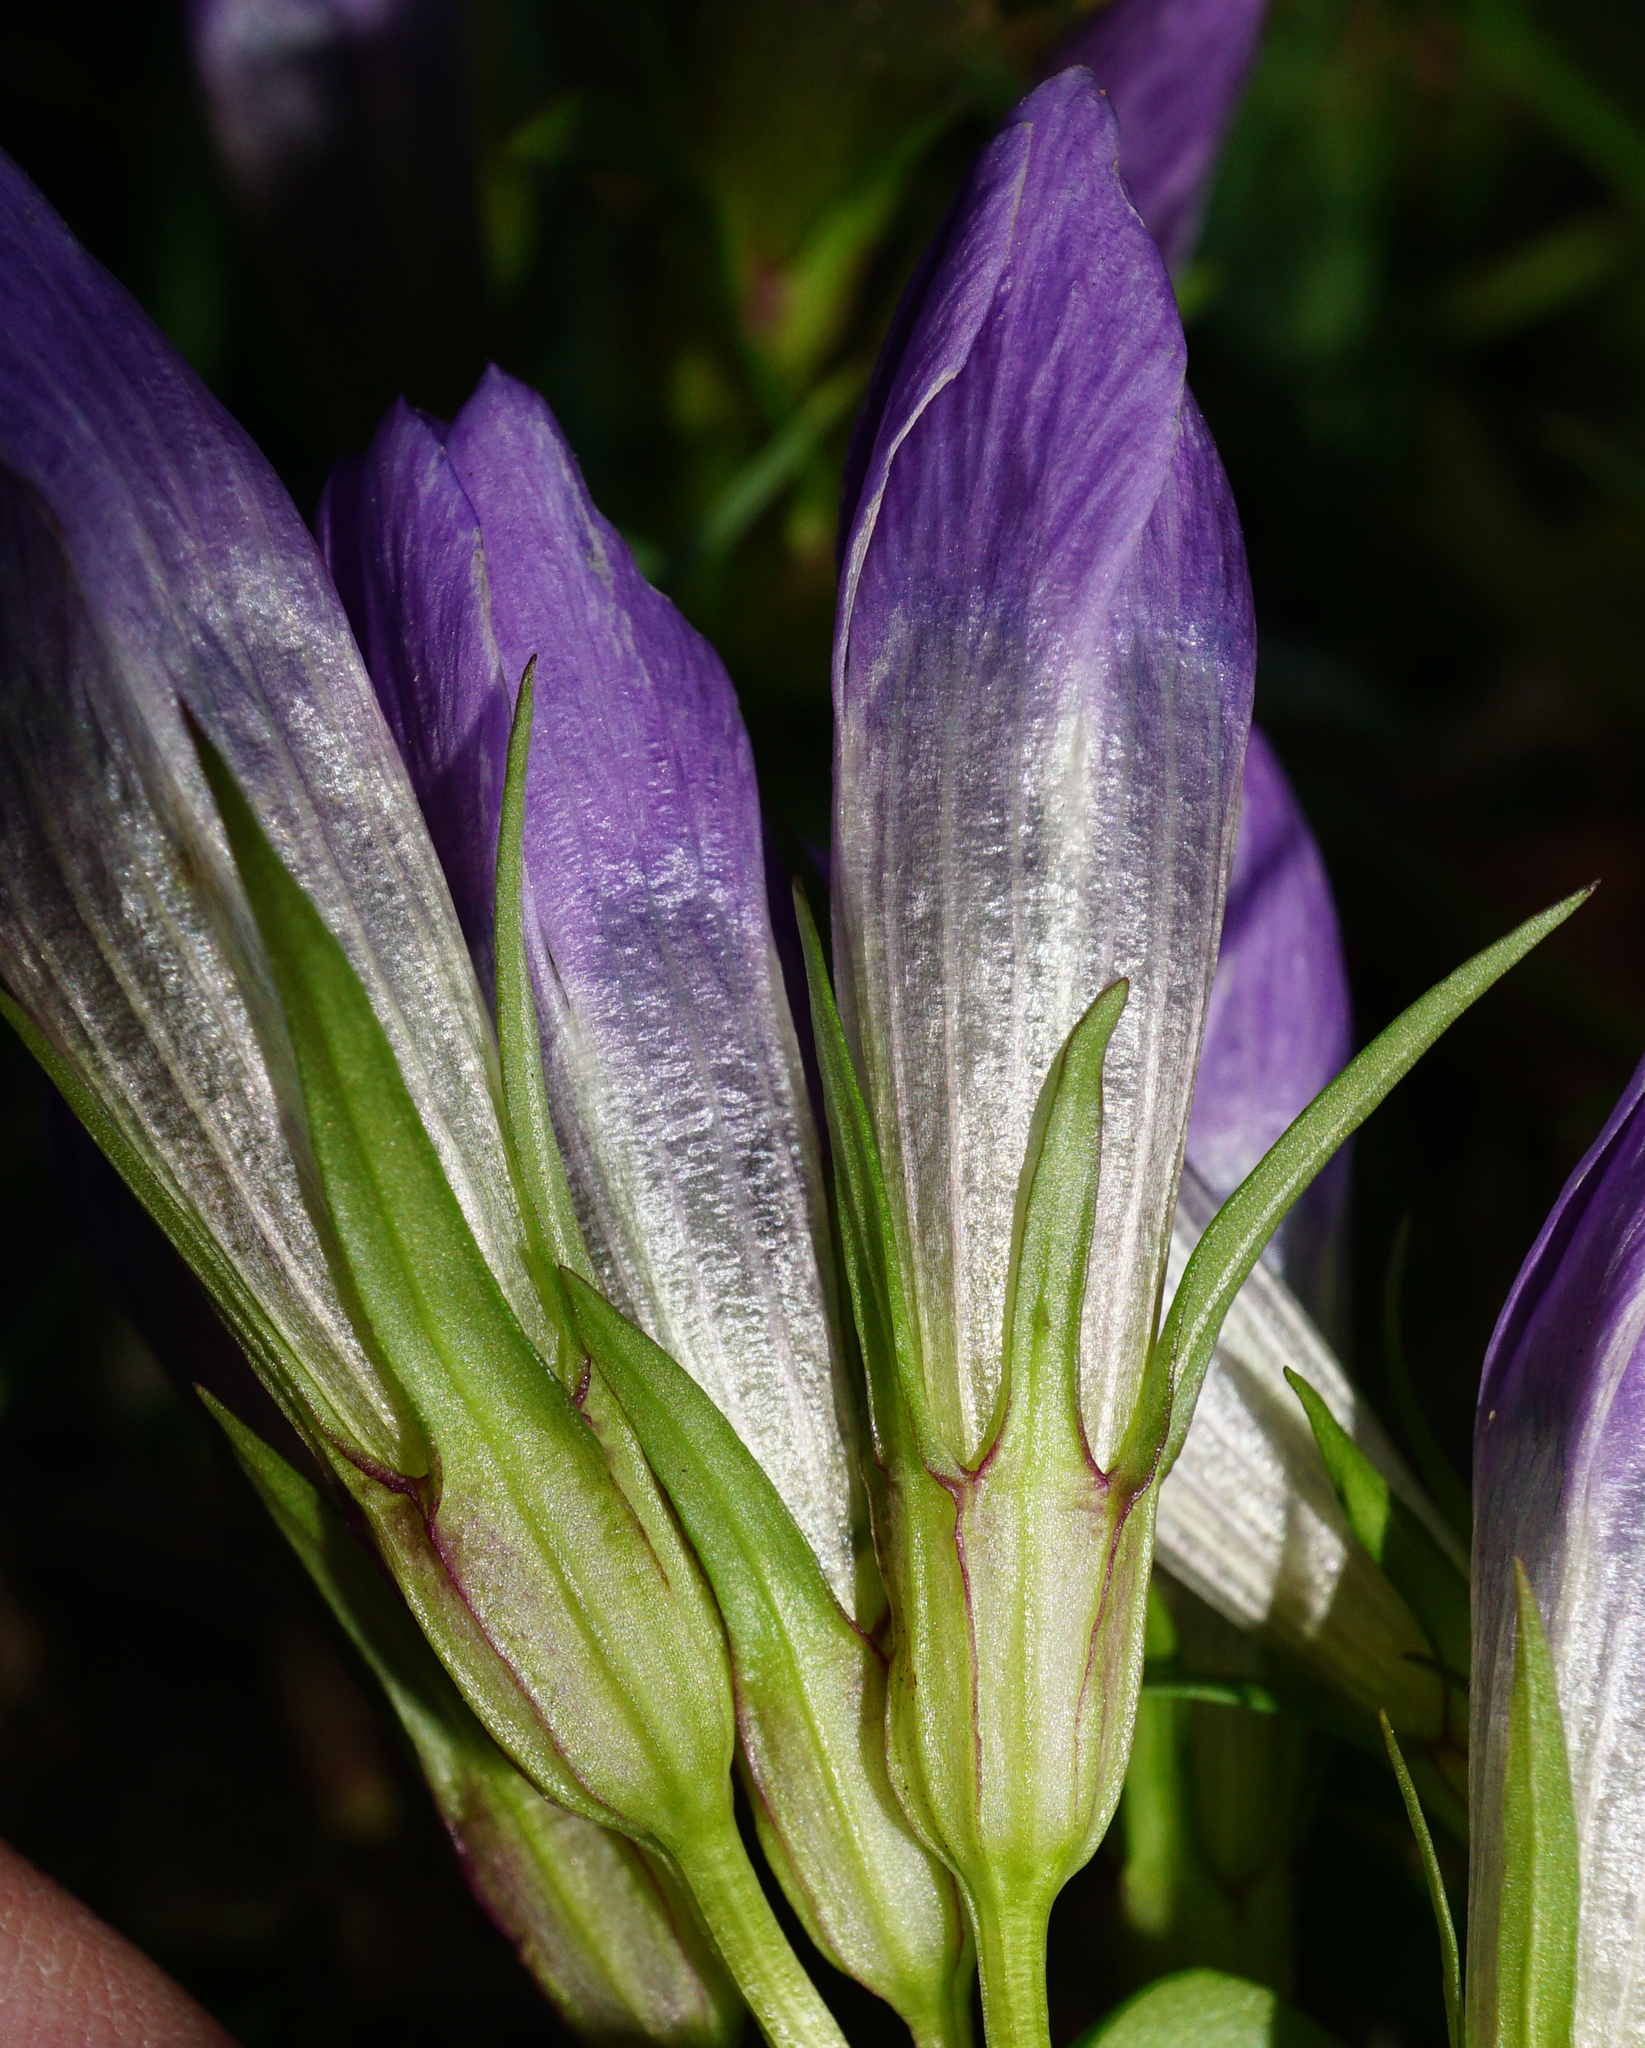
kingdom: Plantae
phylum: Tracheophyta
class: Magnoliopsida
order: Gentianales
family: Gentianaceae
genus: Gentianella
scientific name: Gentianella austriaca
